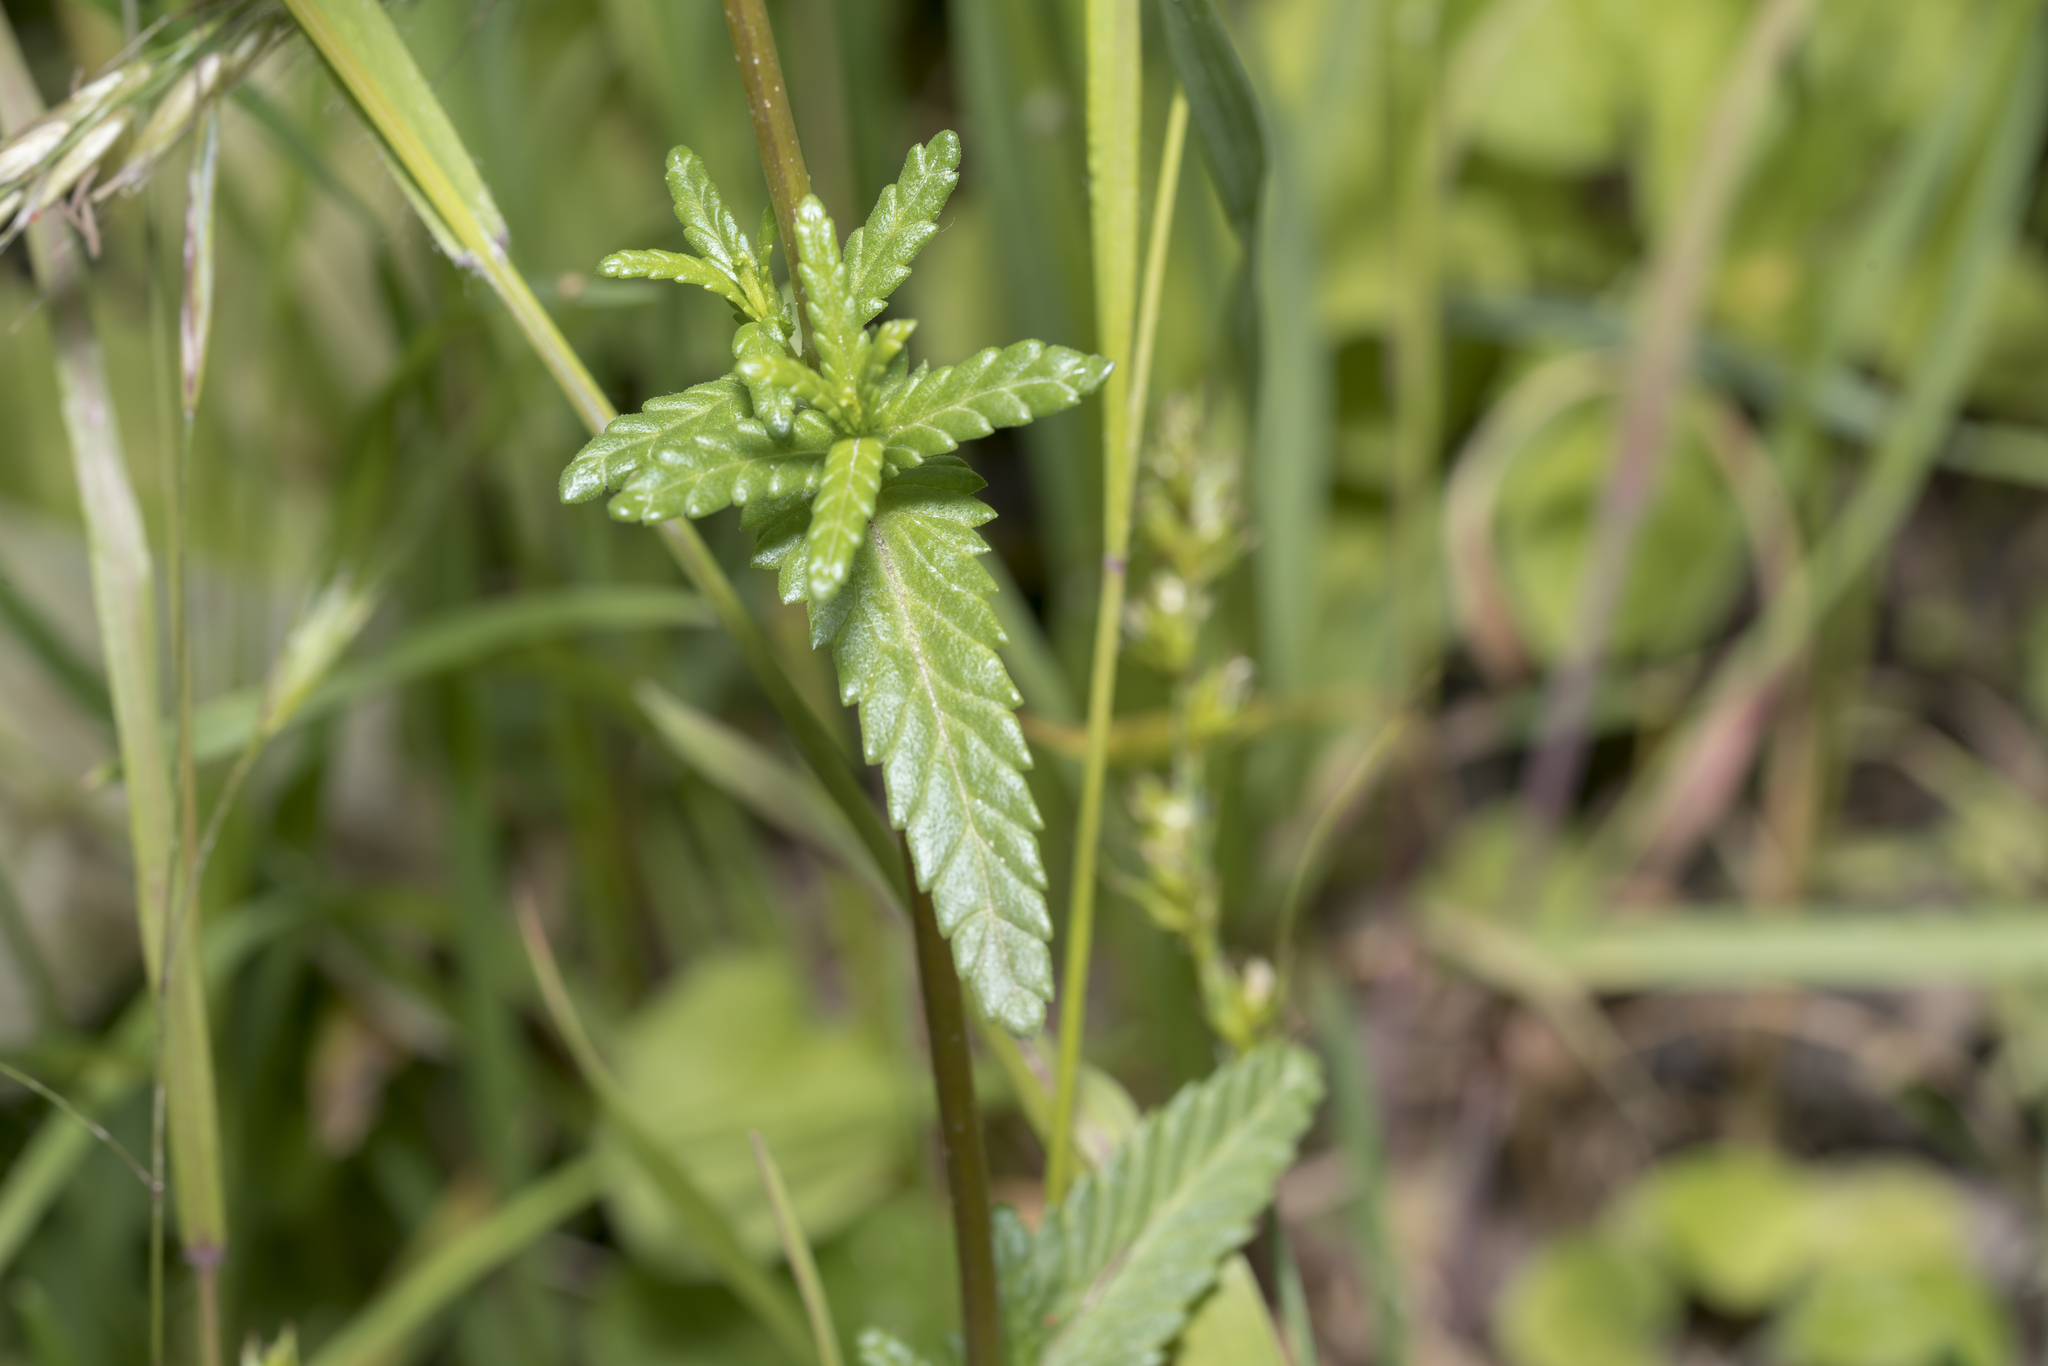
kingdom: Plantae
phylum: Tracheophyta
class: Magnoliopsida
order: Lamiales
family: Orobanchaceae
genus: Rhinanthus
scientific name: Rhinanthus minor
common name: Yellow-rattle
